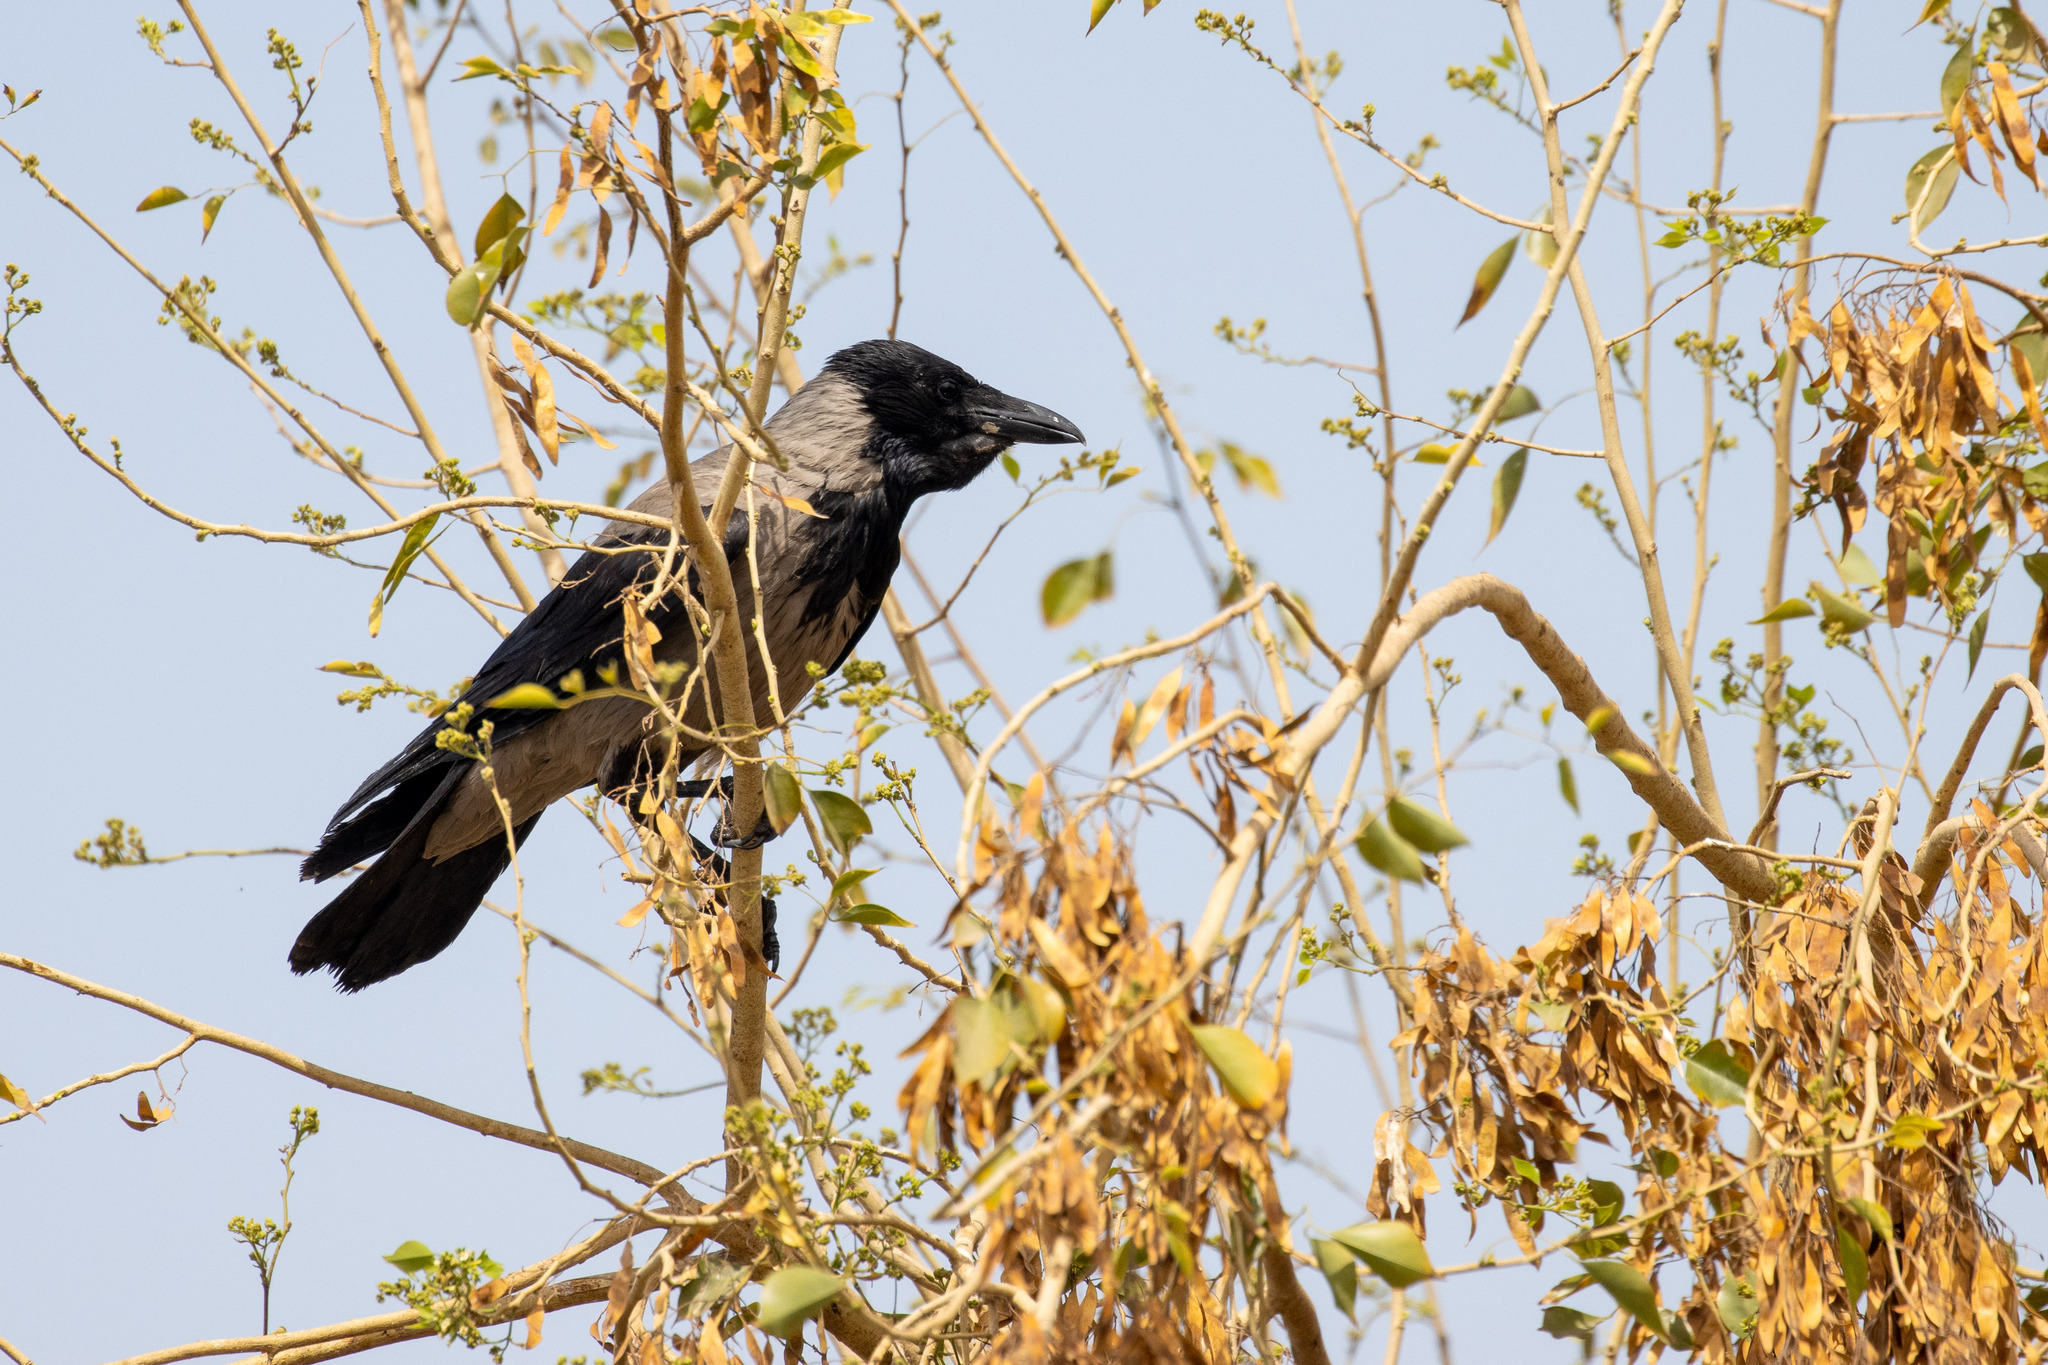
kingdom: Animalia
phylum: Chordata
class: Aves
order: Passeriformes
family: Corvidae
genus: Corvus
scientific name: Corvus cornix
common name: Hooded crow
